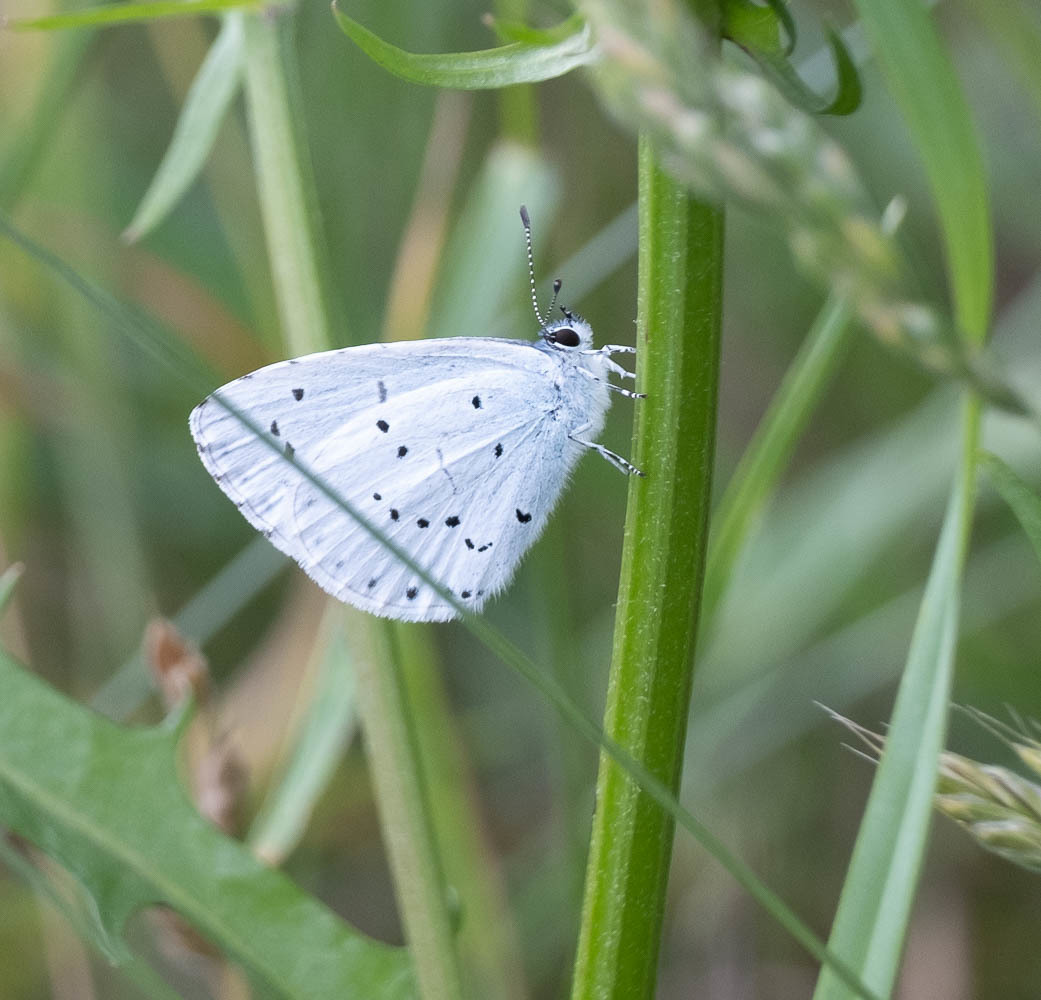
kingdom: Animalia
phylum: Arthropoda
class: Insecta
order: Lepidoptera
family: Lycaenidae
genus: Celastrina
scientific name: Celastrina argiolus
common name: Holly blue
